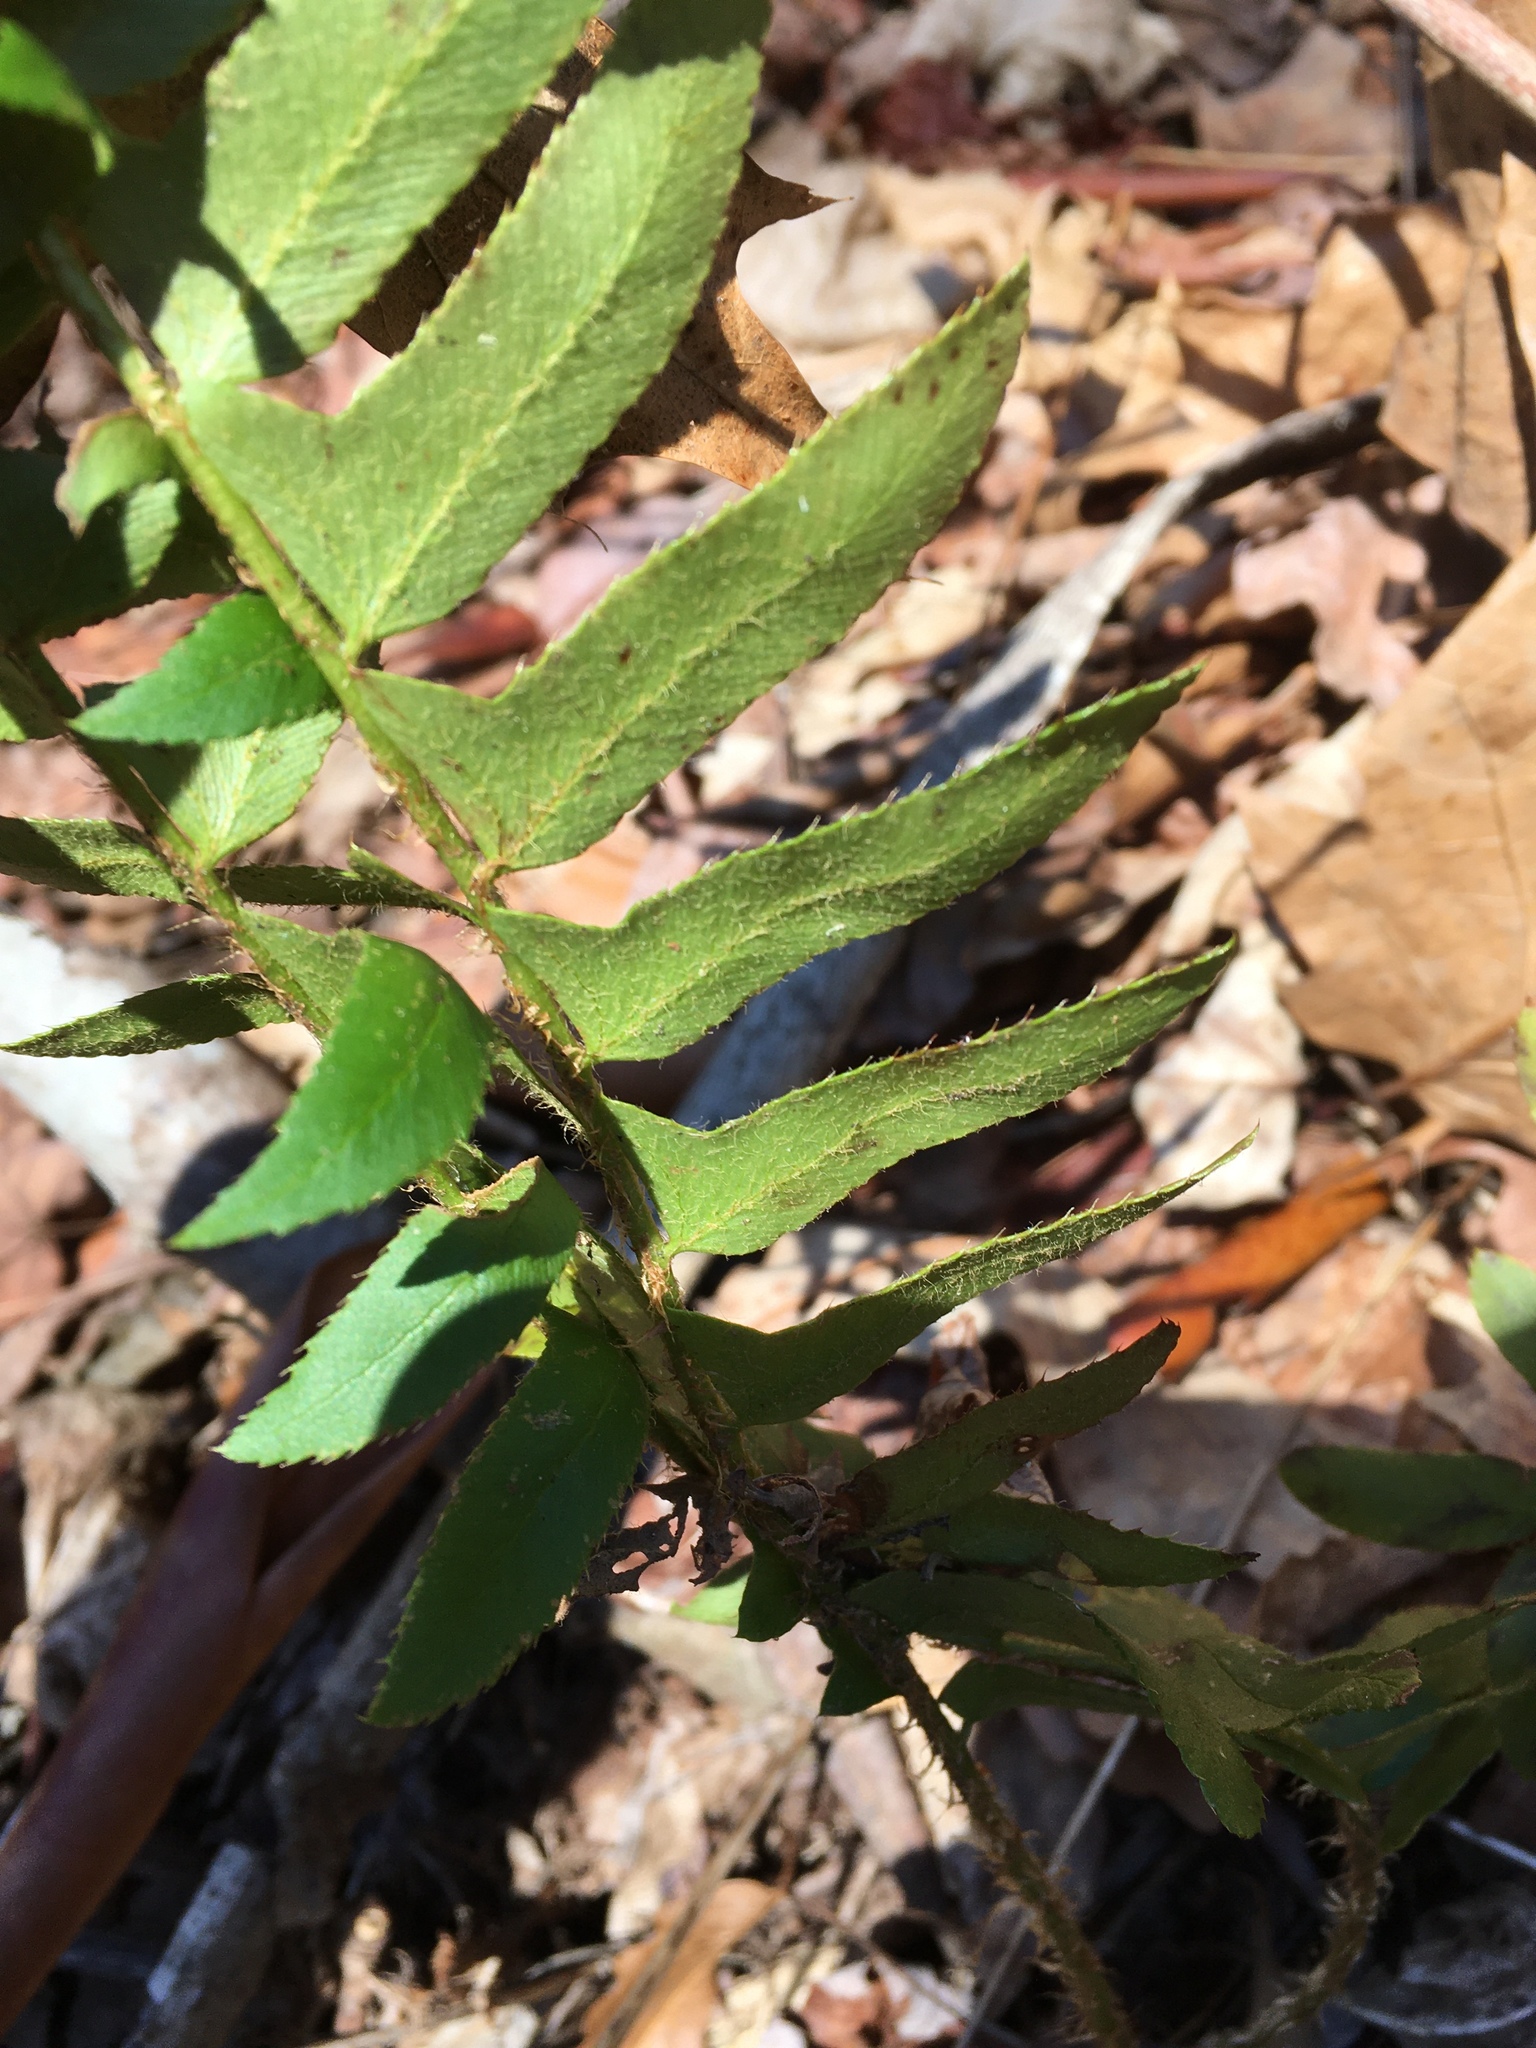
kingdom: Plantae
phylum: Tracheophyta
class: Polypodiopsida
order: Polypodiales
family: Dryopteridaceae
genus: Polystichum
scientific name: Polystichum acrostichoides
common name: Christmas fern
